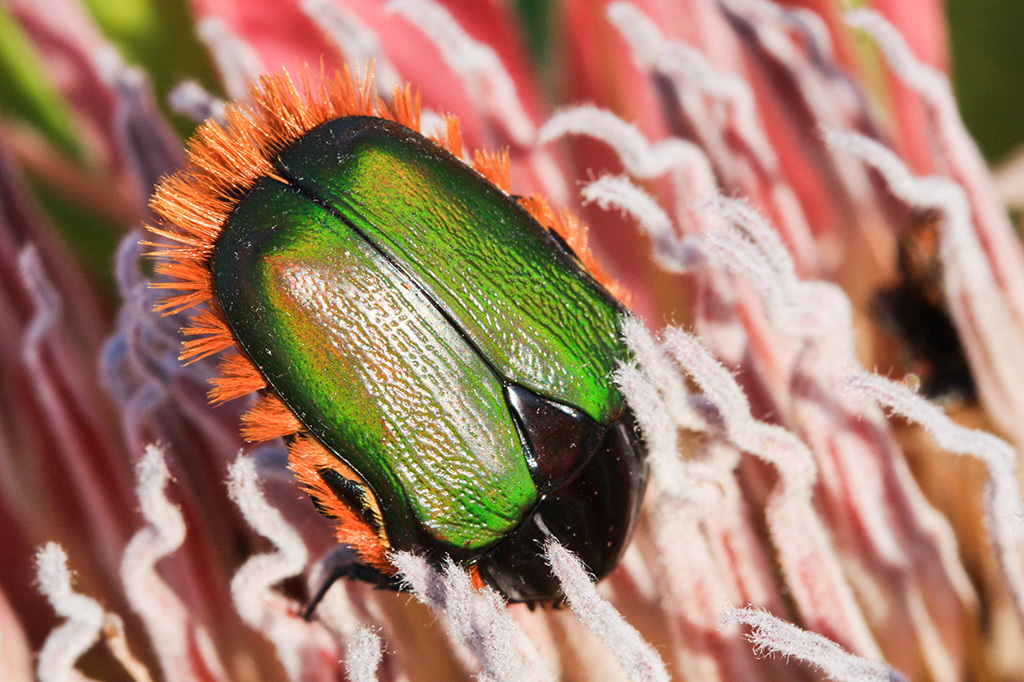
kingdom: Animalia
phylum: Arthropoda
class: Insecta
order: Coleoptera
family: Scarabaeidae
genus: Trichostetha
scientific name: Trichostetha fascicularis
